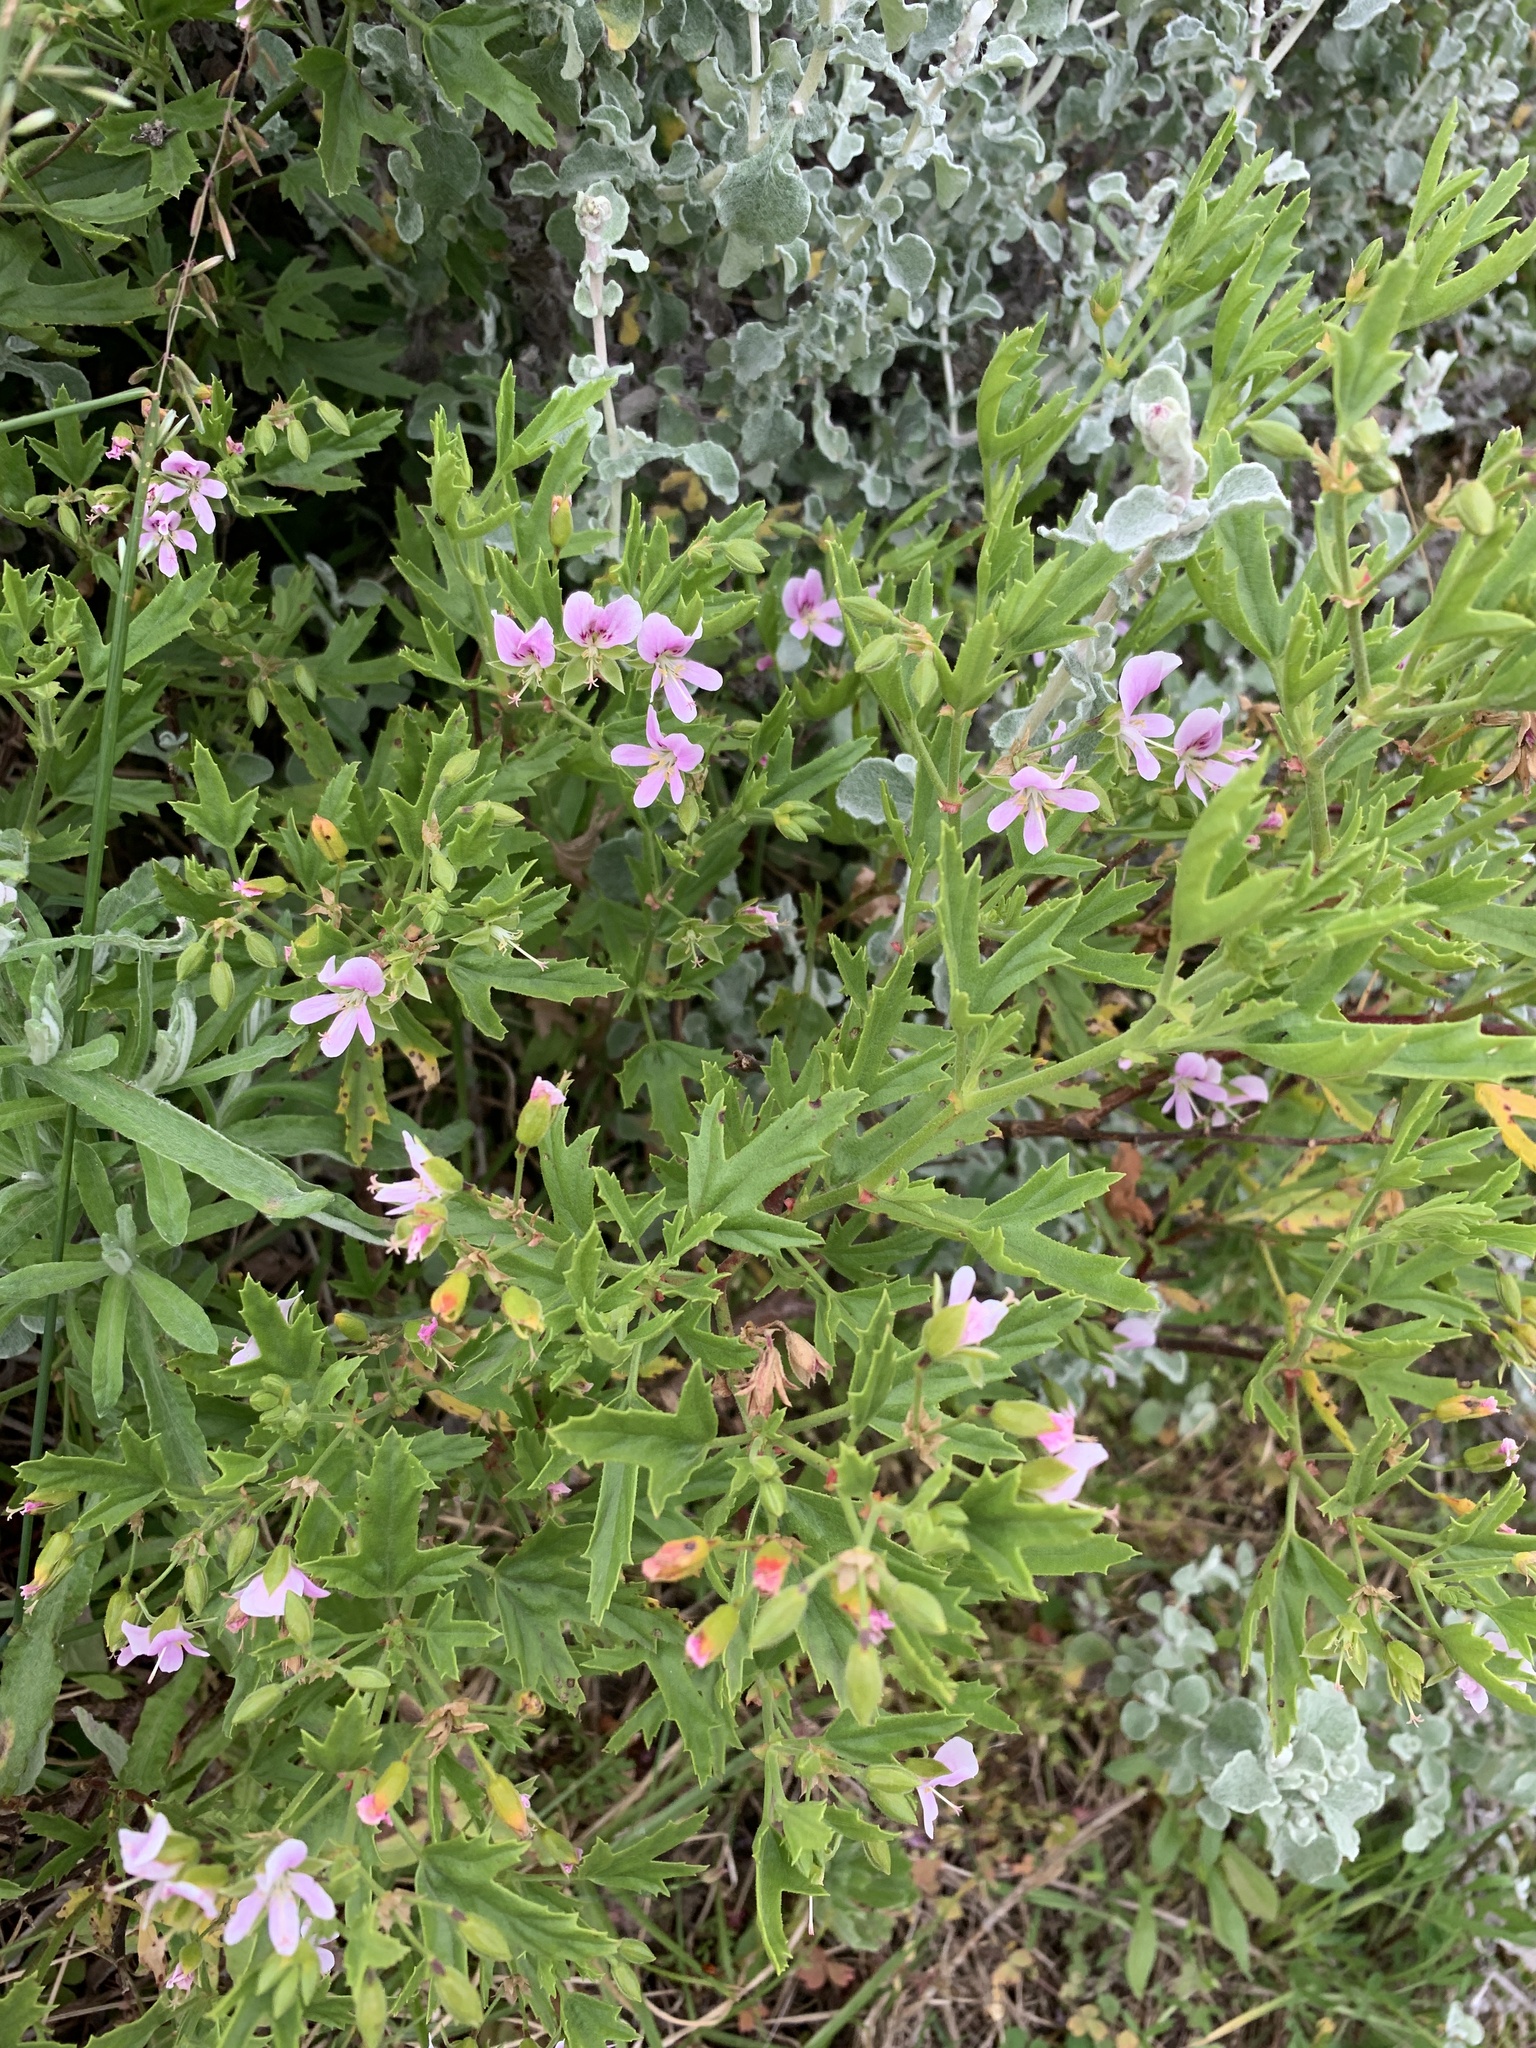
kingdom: Plantae
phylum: Tracheophyta
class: Magnoliopsida
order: Geraniales
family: Geraniaceae
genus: Pelargonium
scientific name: Pelargonium scabrum
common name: Apricot geranium
